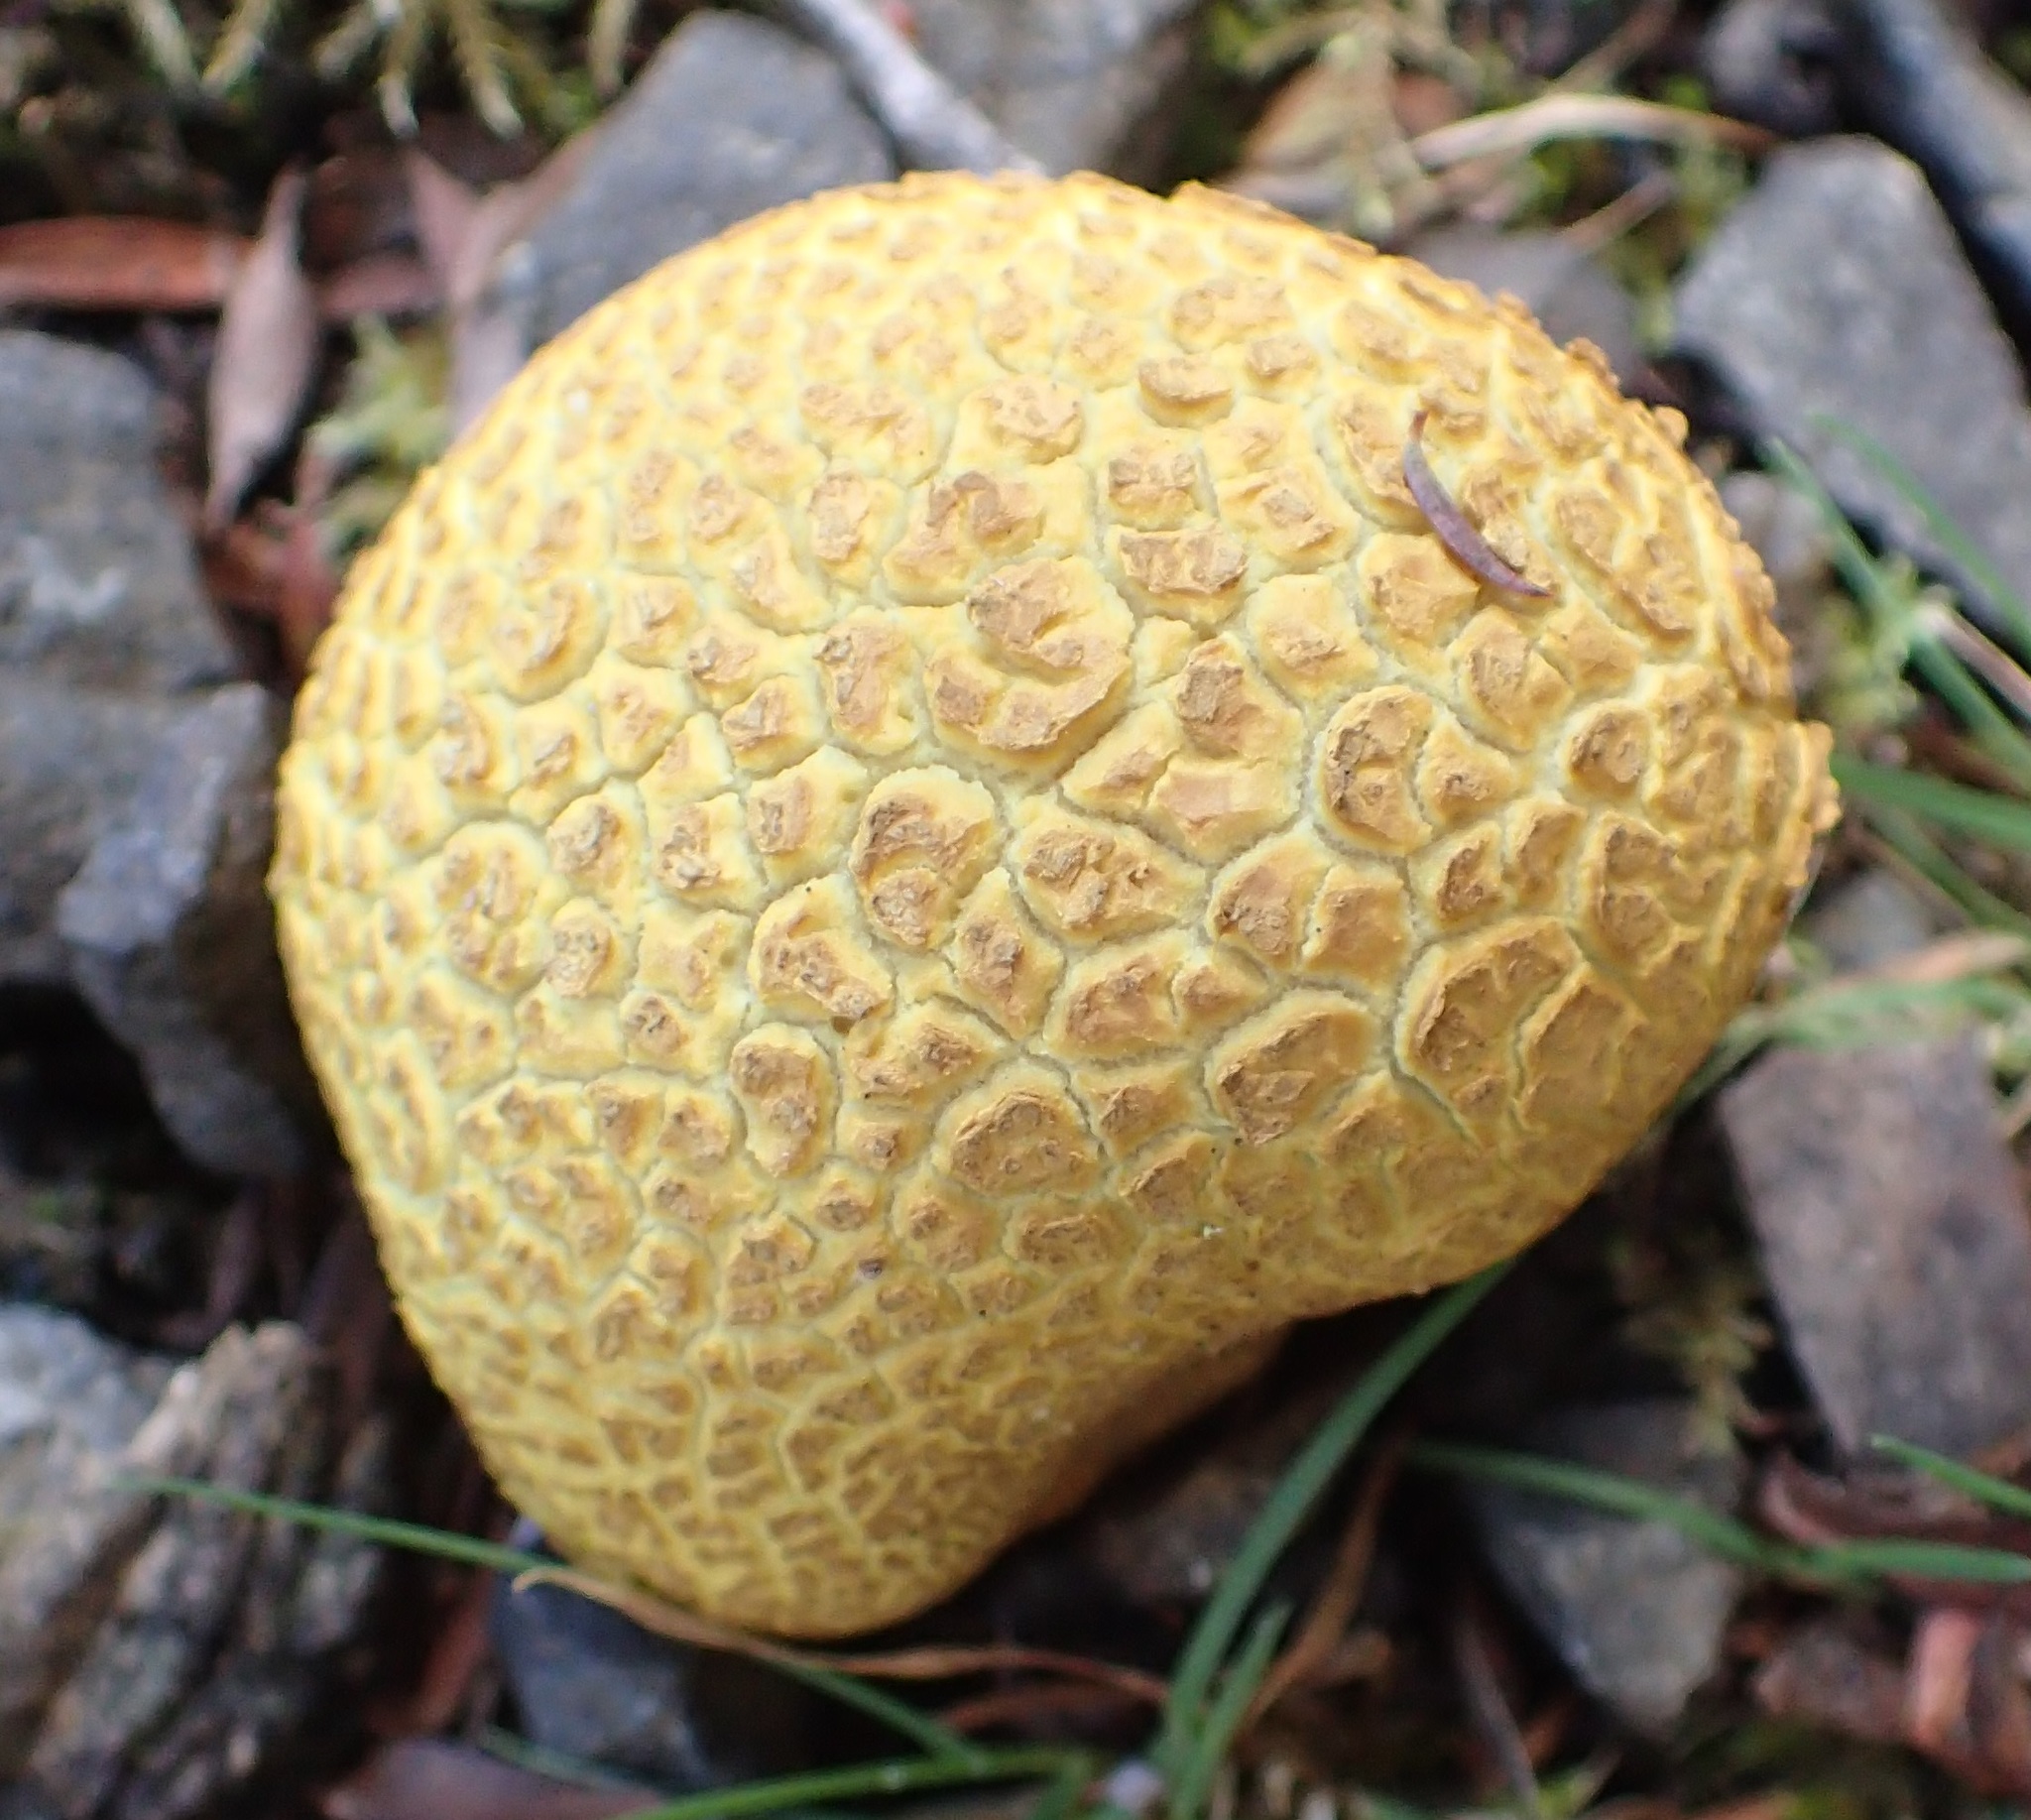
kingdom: Fungi
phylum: Basidiomycota
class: Agaricomycetes
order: Boletales
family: Sclerodermataceae
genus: Scleroderma
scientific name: Scleroderma cepa
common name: Onion earthball
